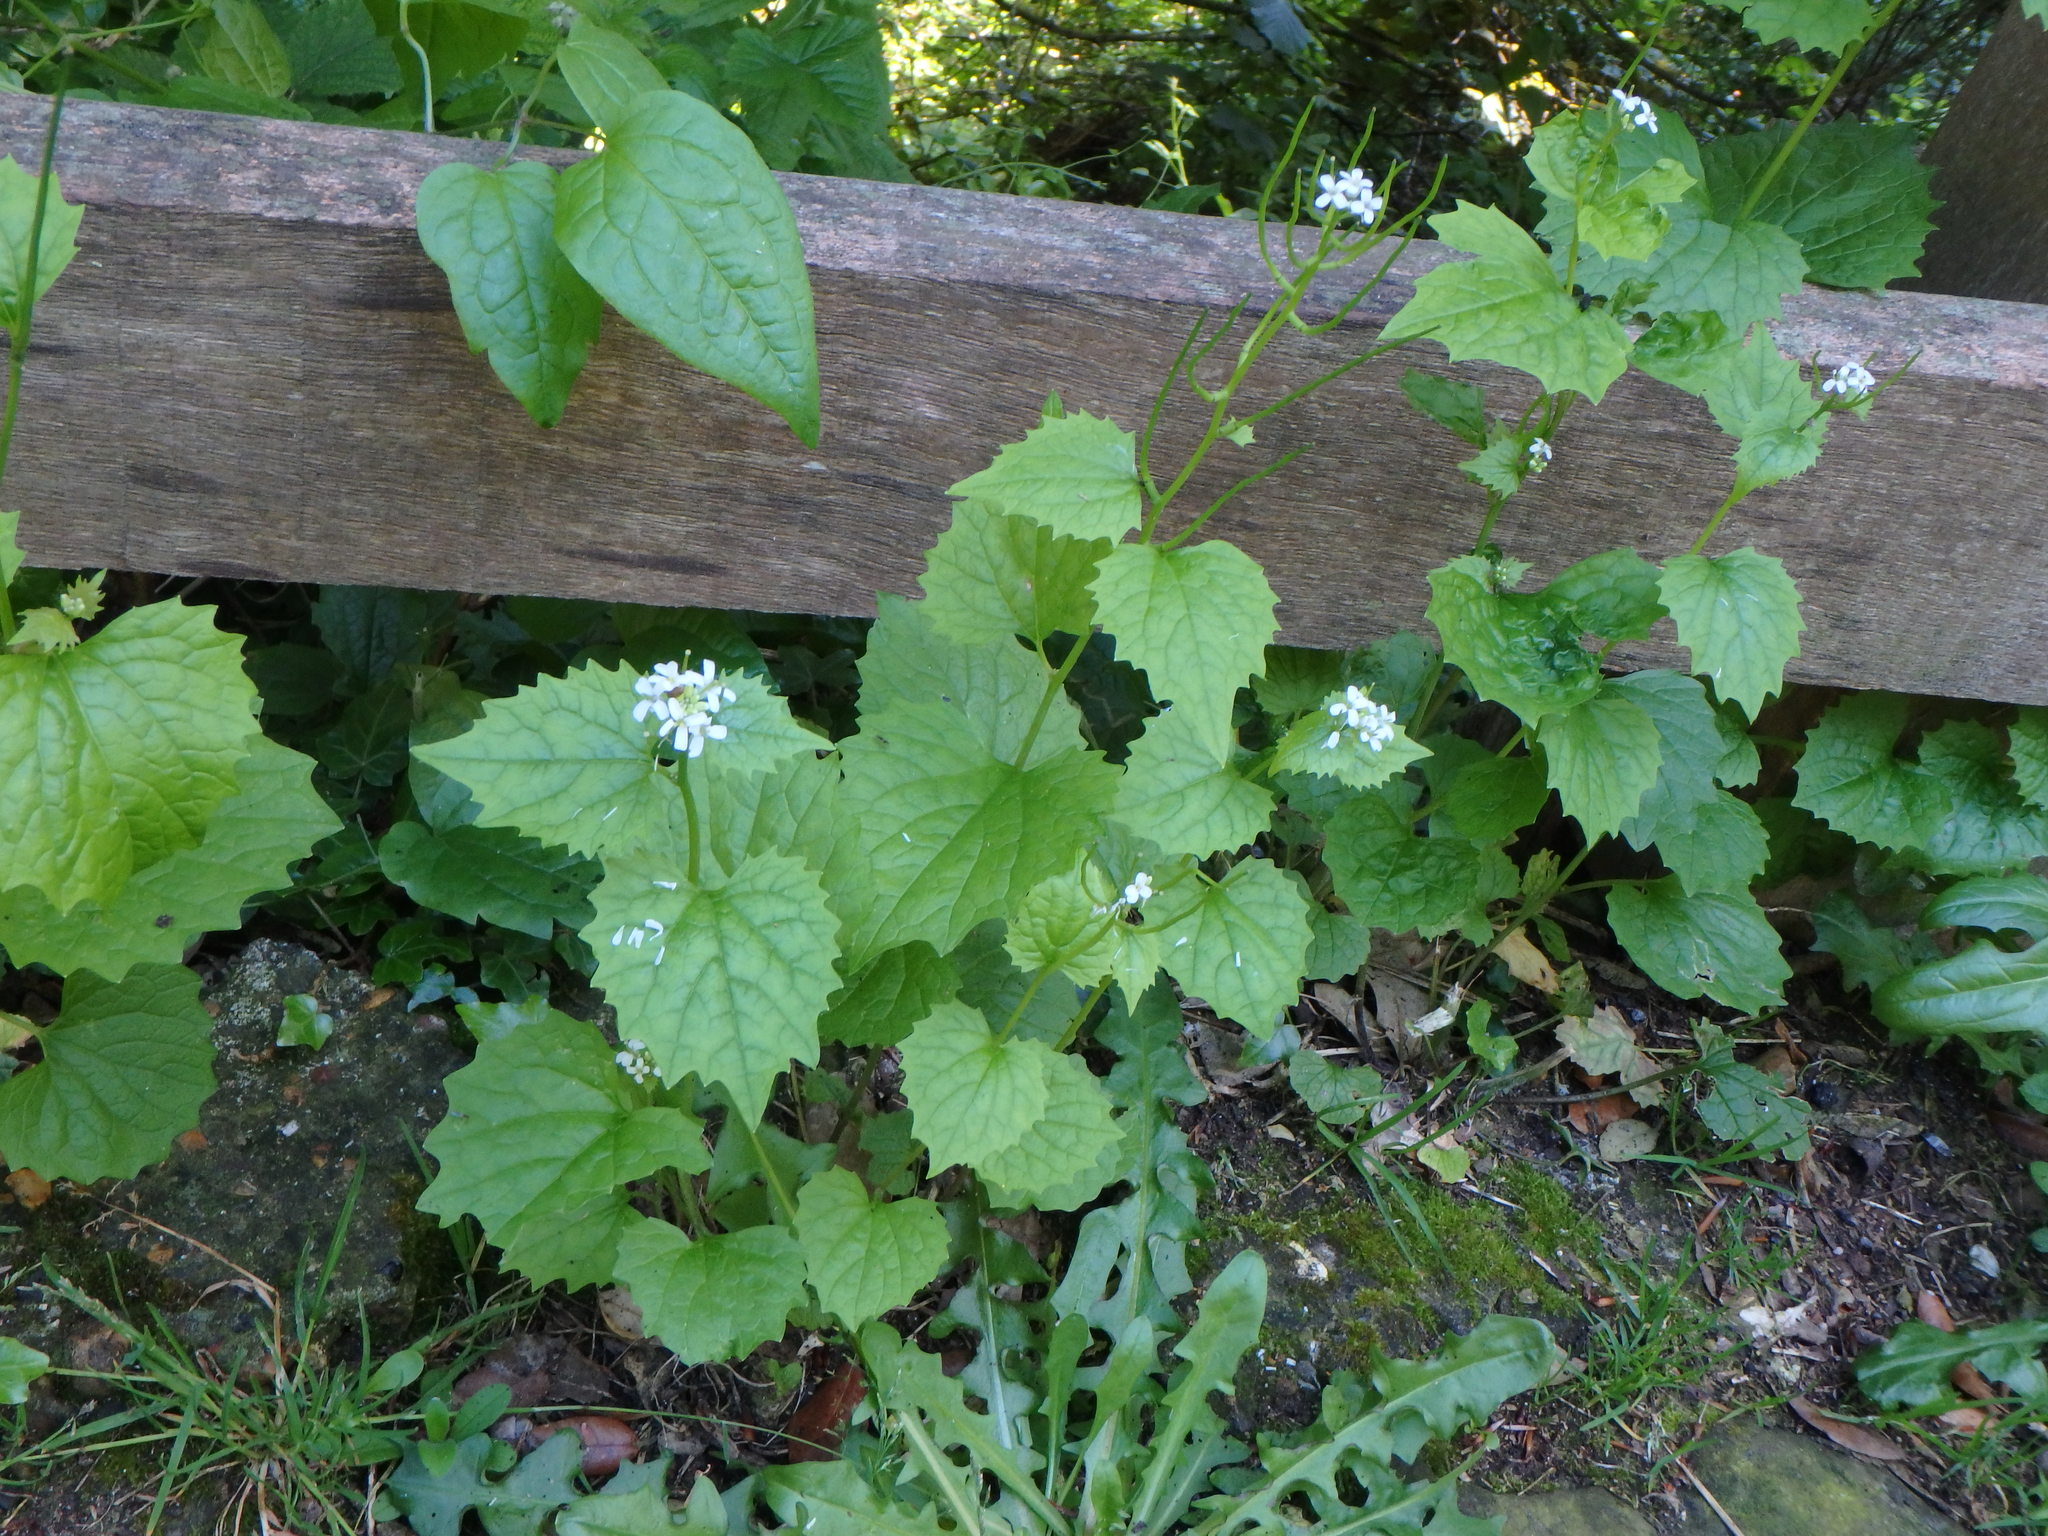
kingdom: Plantae
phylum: Tracheophyta
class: Magnoliopsida
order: Brassicales
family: Brassicaceae
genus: Alliaria
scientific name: Alliaria petiolata
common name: Garlic mustard
